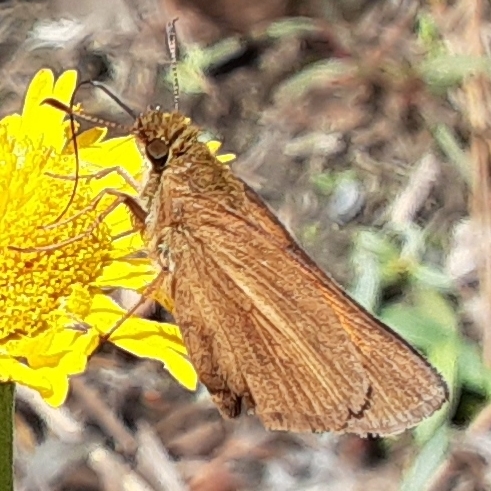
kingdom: Animalia
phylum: Arthropoda
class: Insecta
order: Lepidoptera
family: Hesperiidae
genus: Poanes
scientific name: Poanes aaroni
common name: Aaron's skipper
